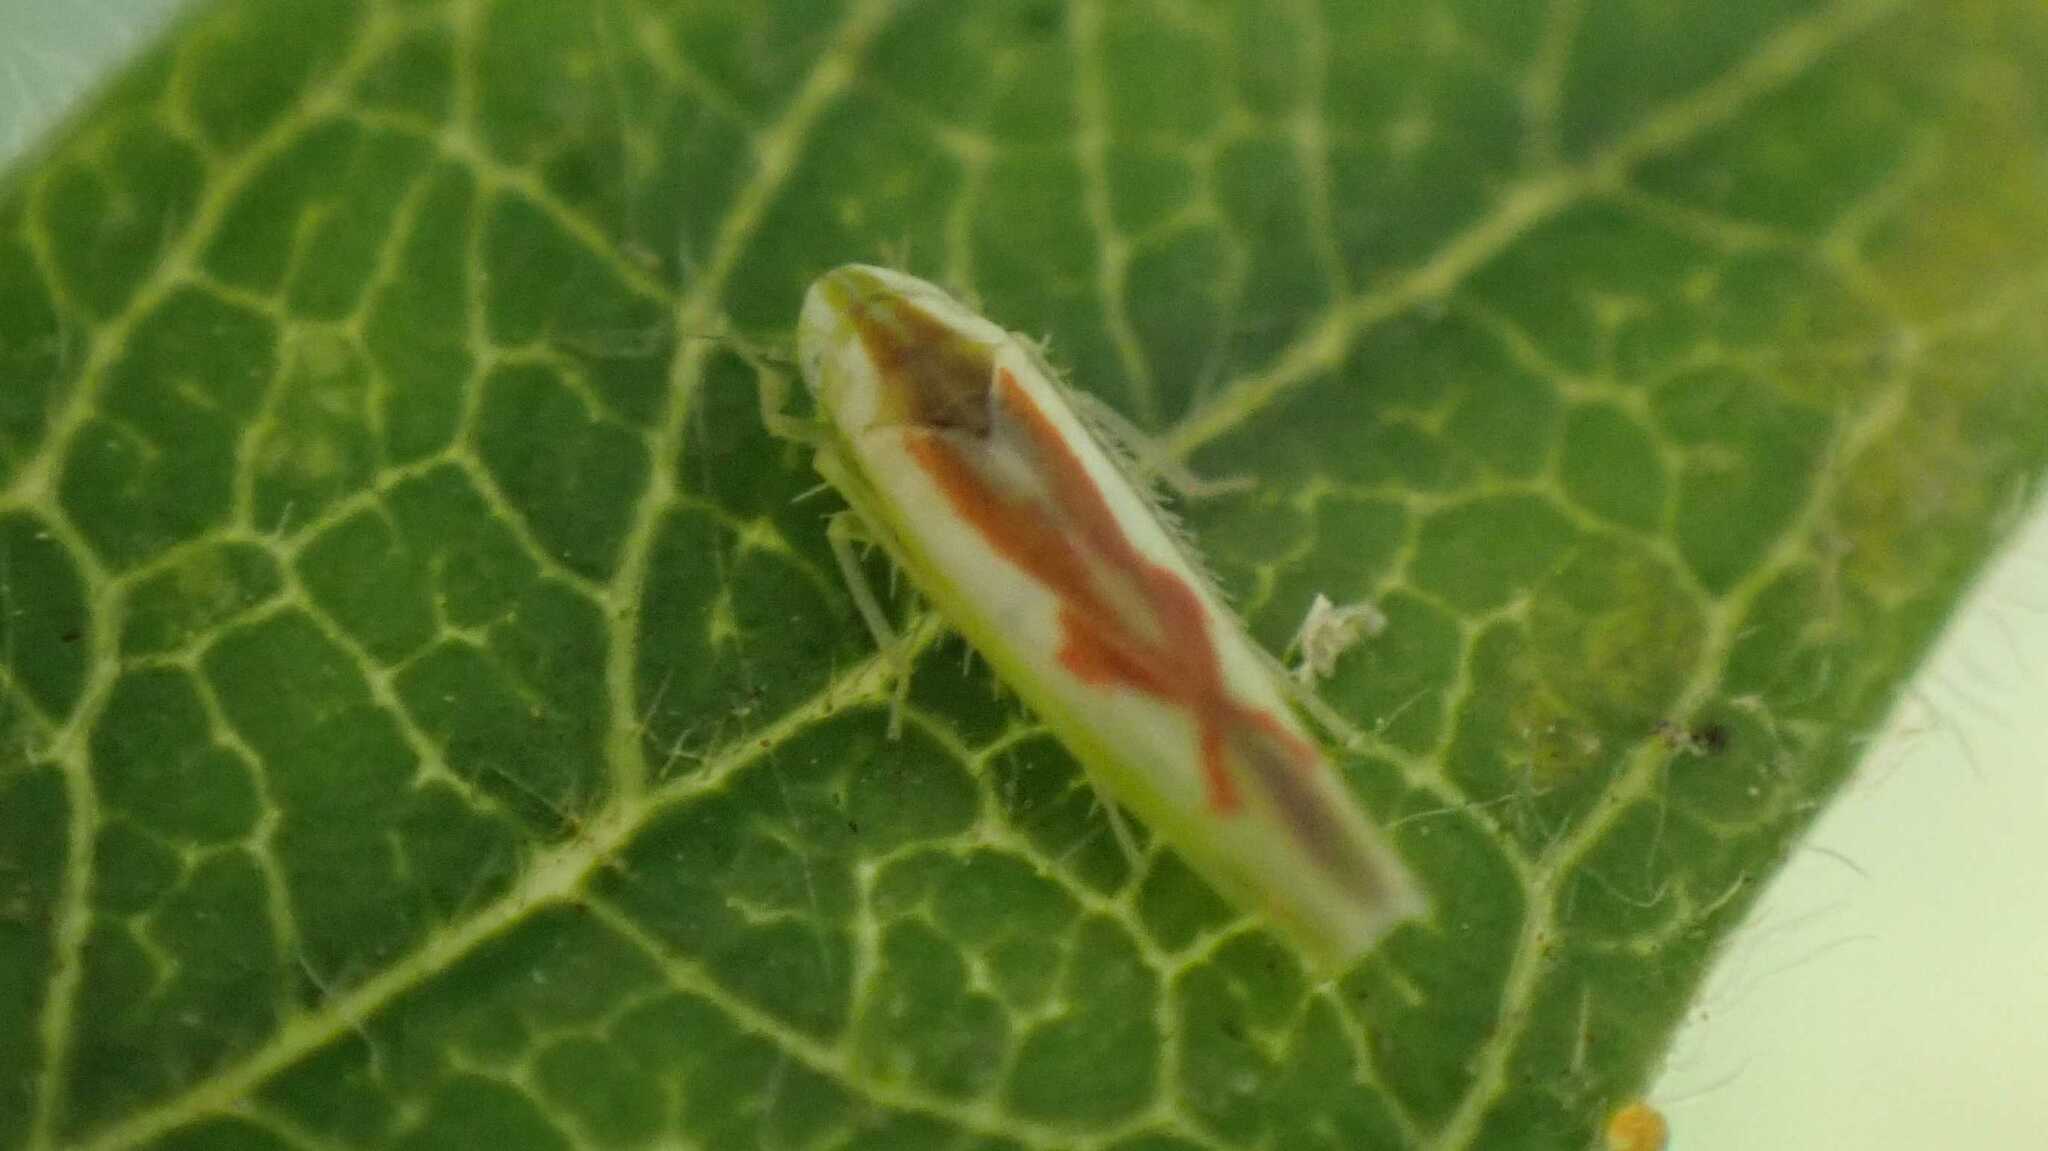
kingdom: Animalia
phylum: Arthropoda
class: Insecta
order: Hemiptera
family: Cicadellidae
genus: Zygina
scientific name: Zygina angusta
